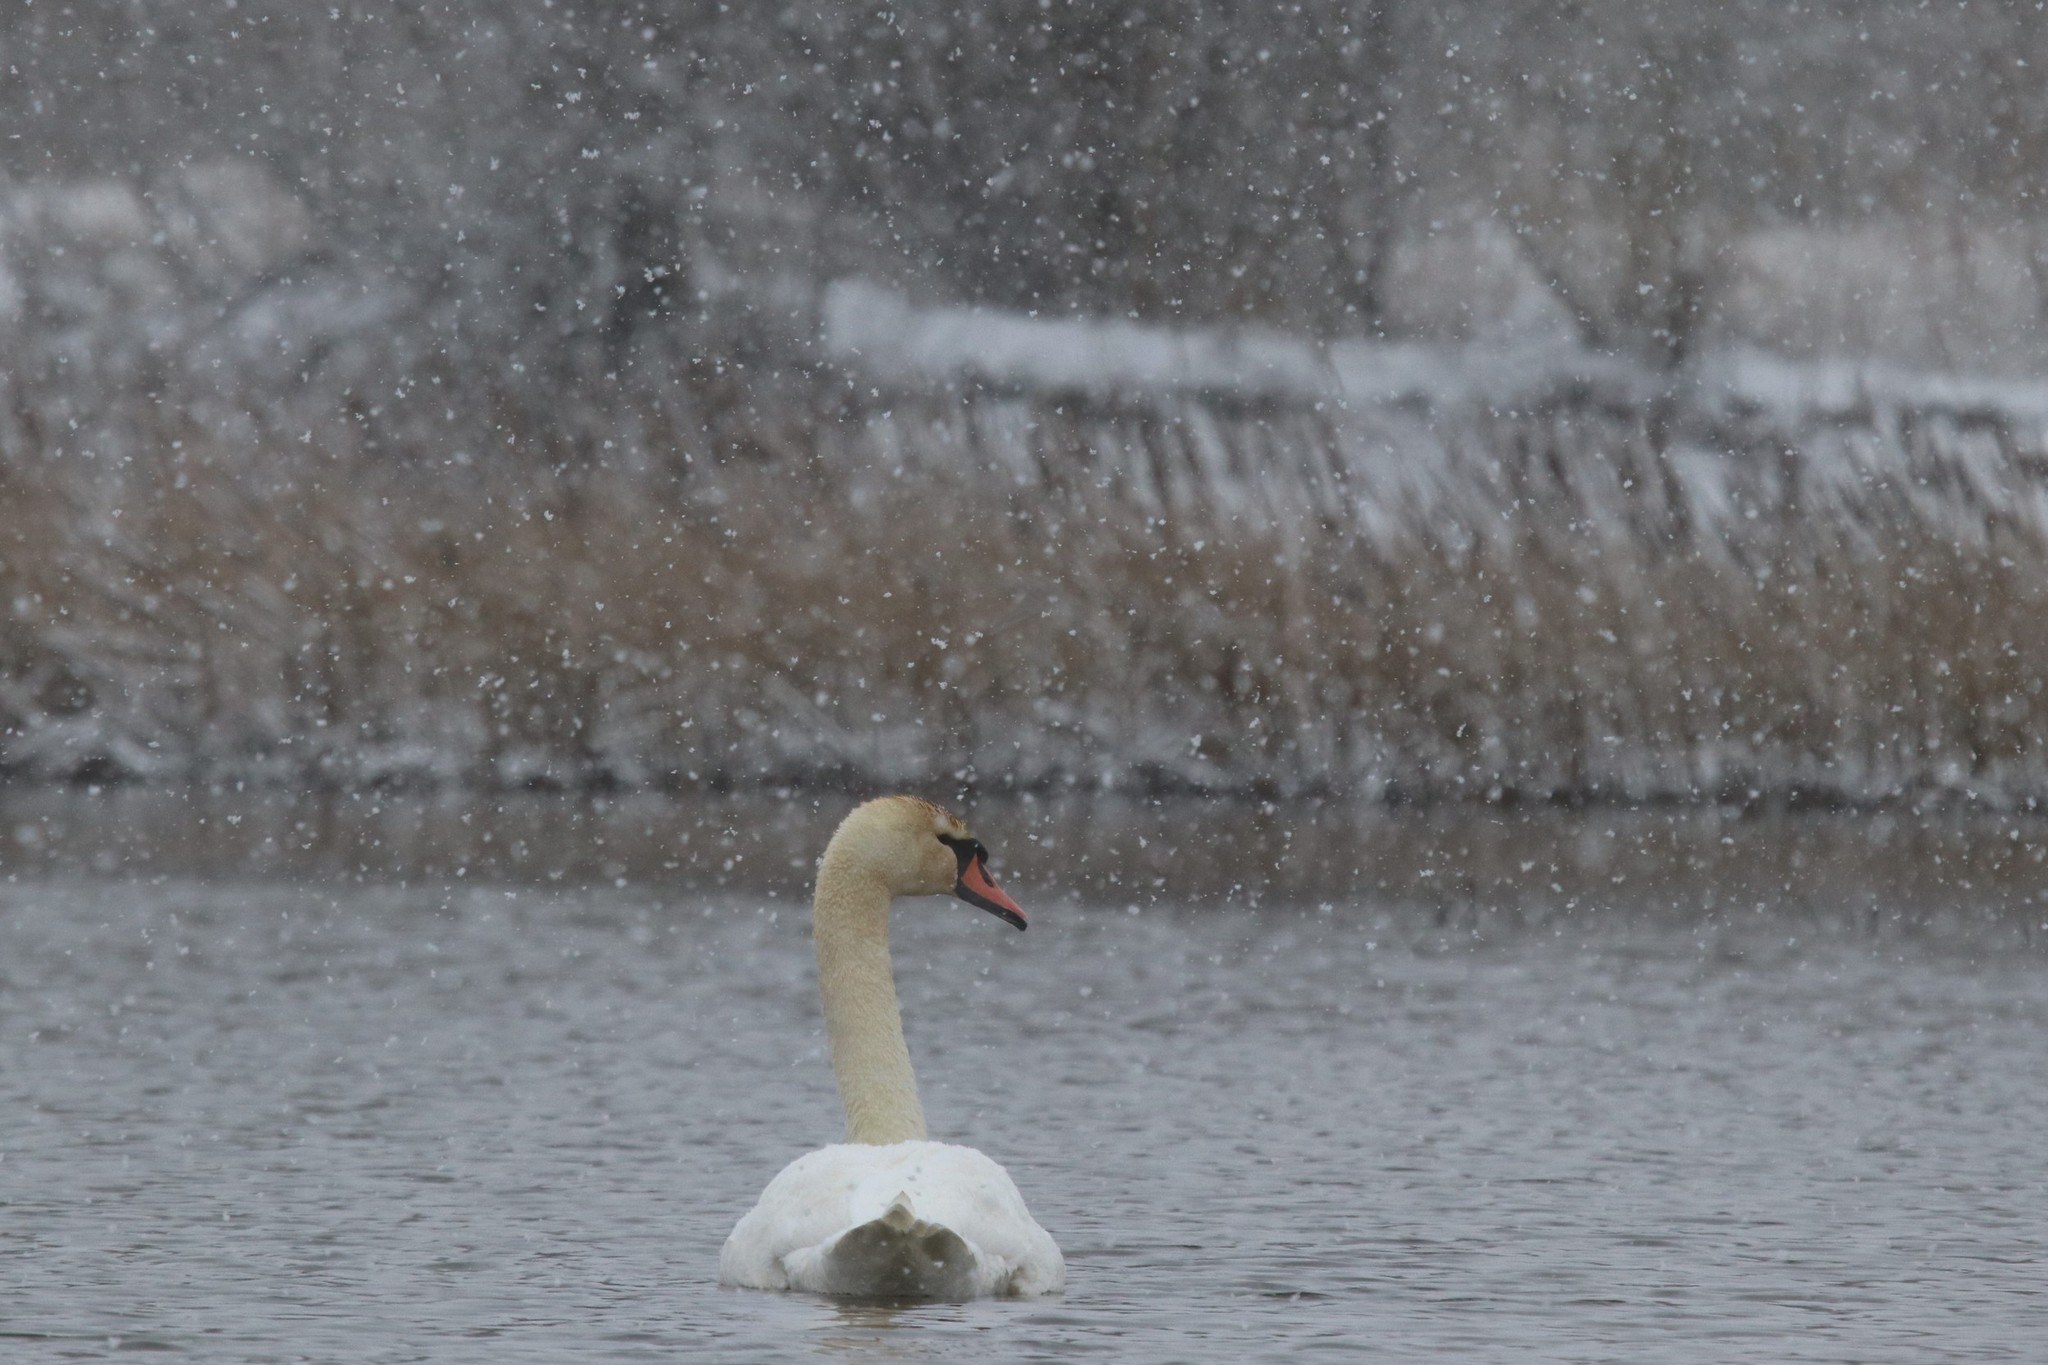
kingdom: Animalia
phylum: Chordata
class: Aves
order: Anseriformes
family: Anatidae
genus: Cygnus
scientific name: Cygnus olor
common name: Mute swan
